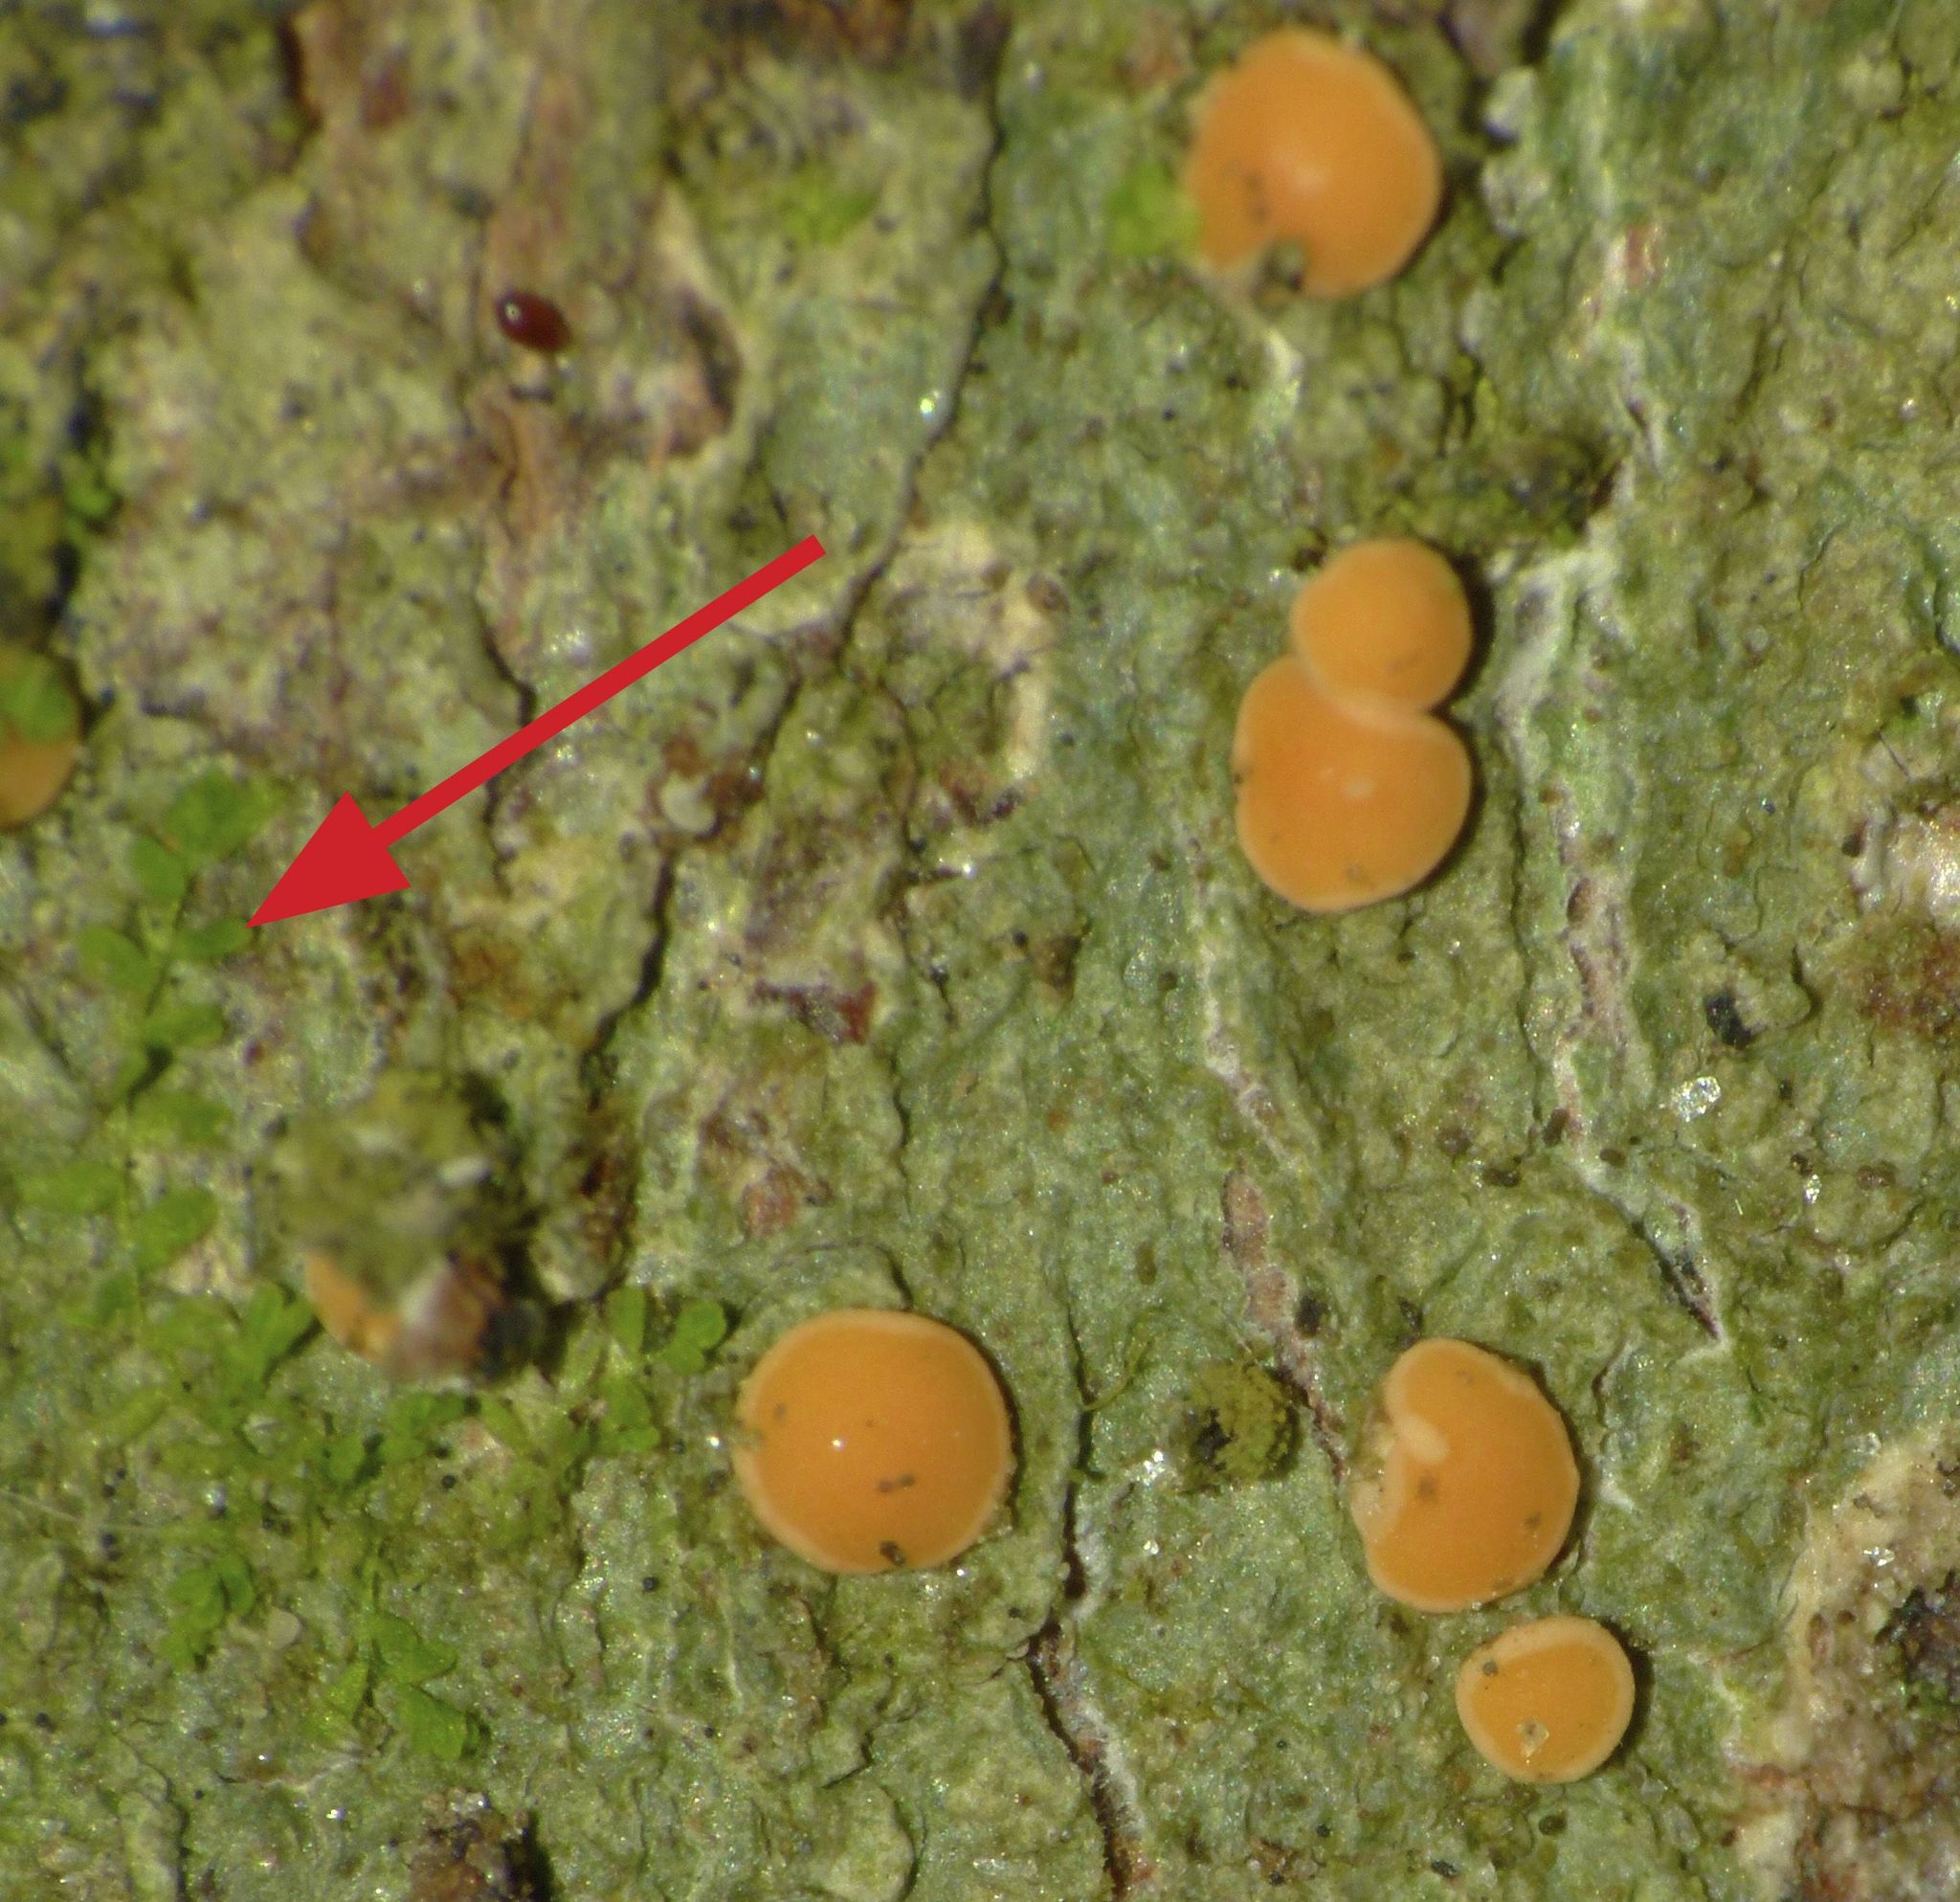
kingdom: Plantae
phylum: Marchantiophyta
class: Jungermanniopsida
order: Porellales
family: Lejeuneaceae
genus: Siphonolejeunea
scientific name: Siphonolejeunea nudipes
